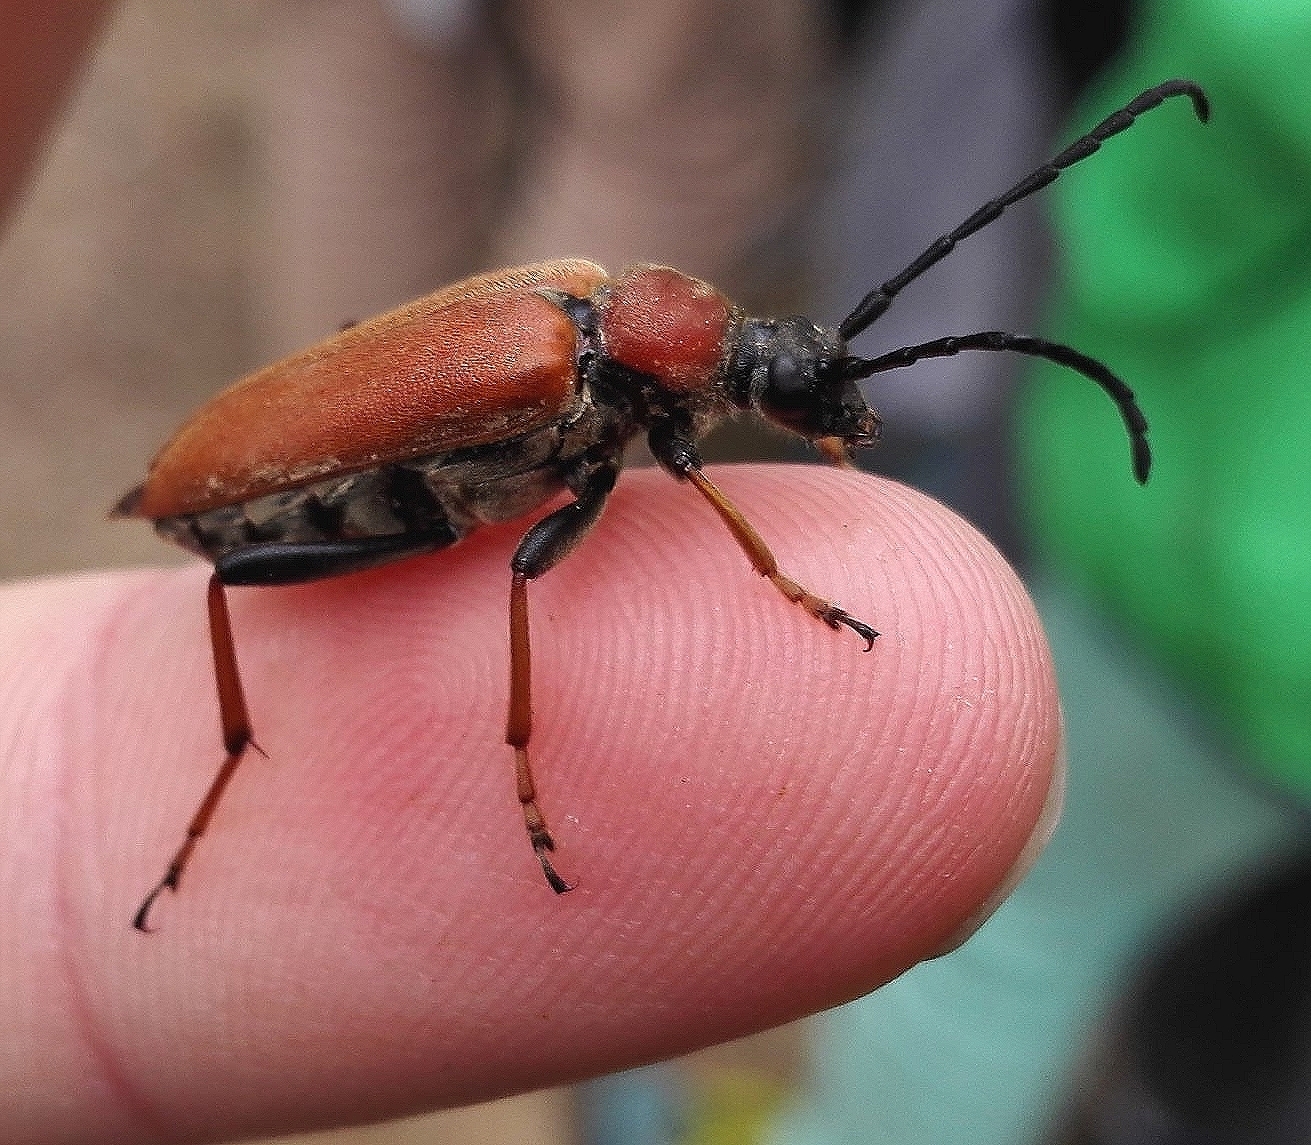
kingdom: Animalia
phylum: Arthropoda
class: Insecta
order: Coleoptera
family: Cerambycidae
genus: Stictoleptura
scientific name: Stictoleptura rubra
